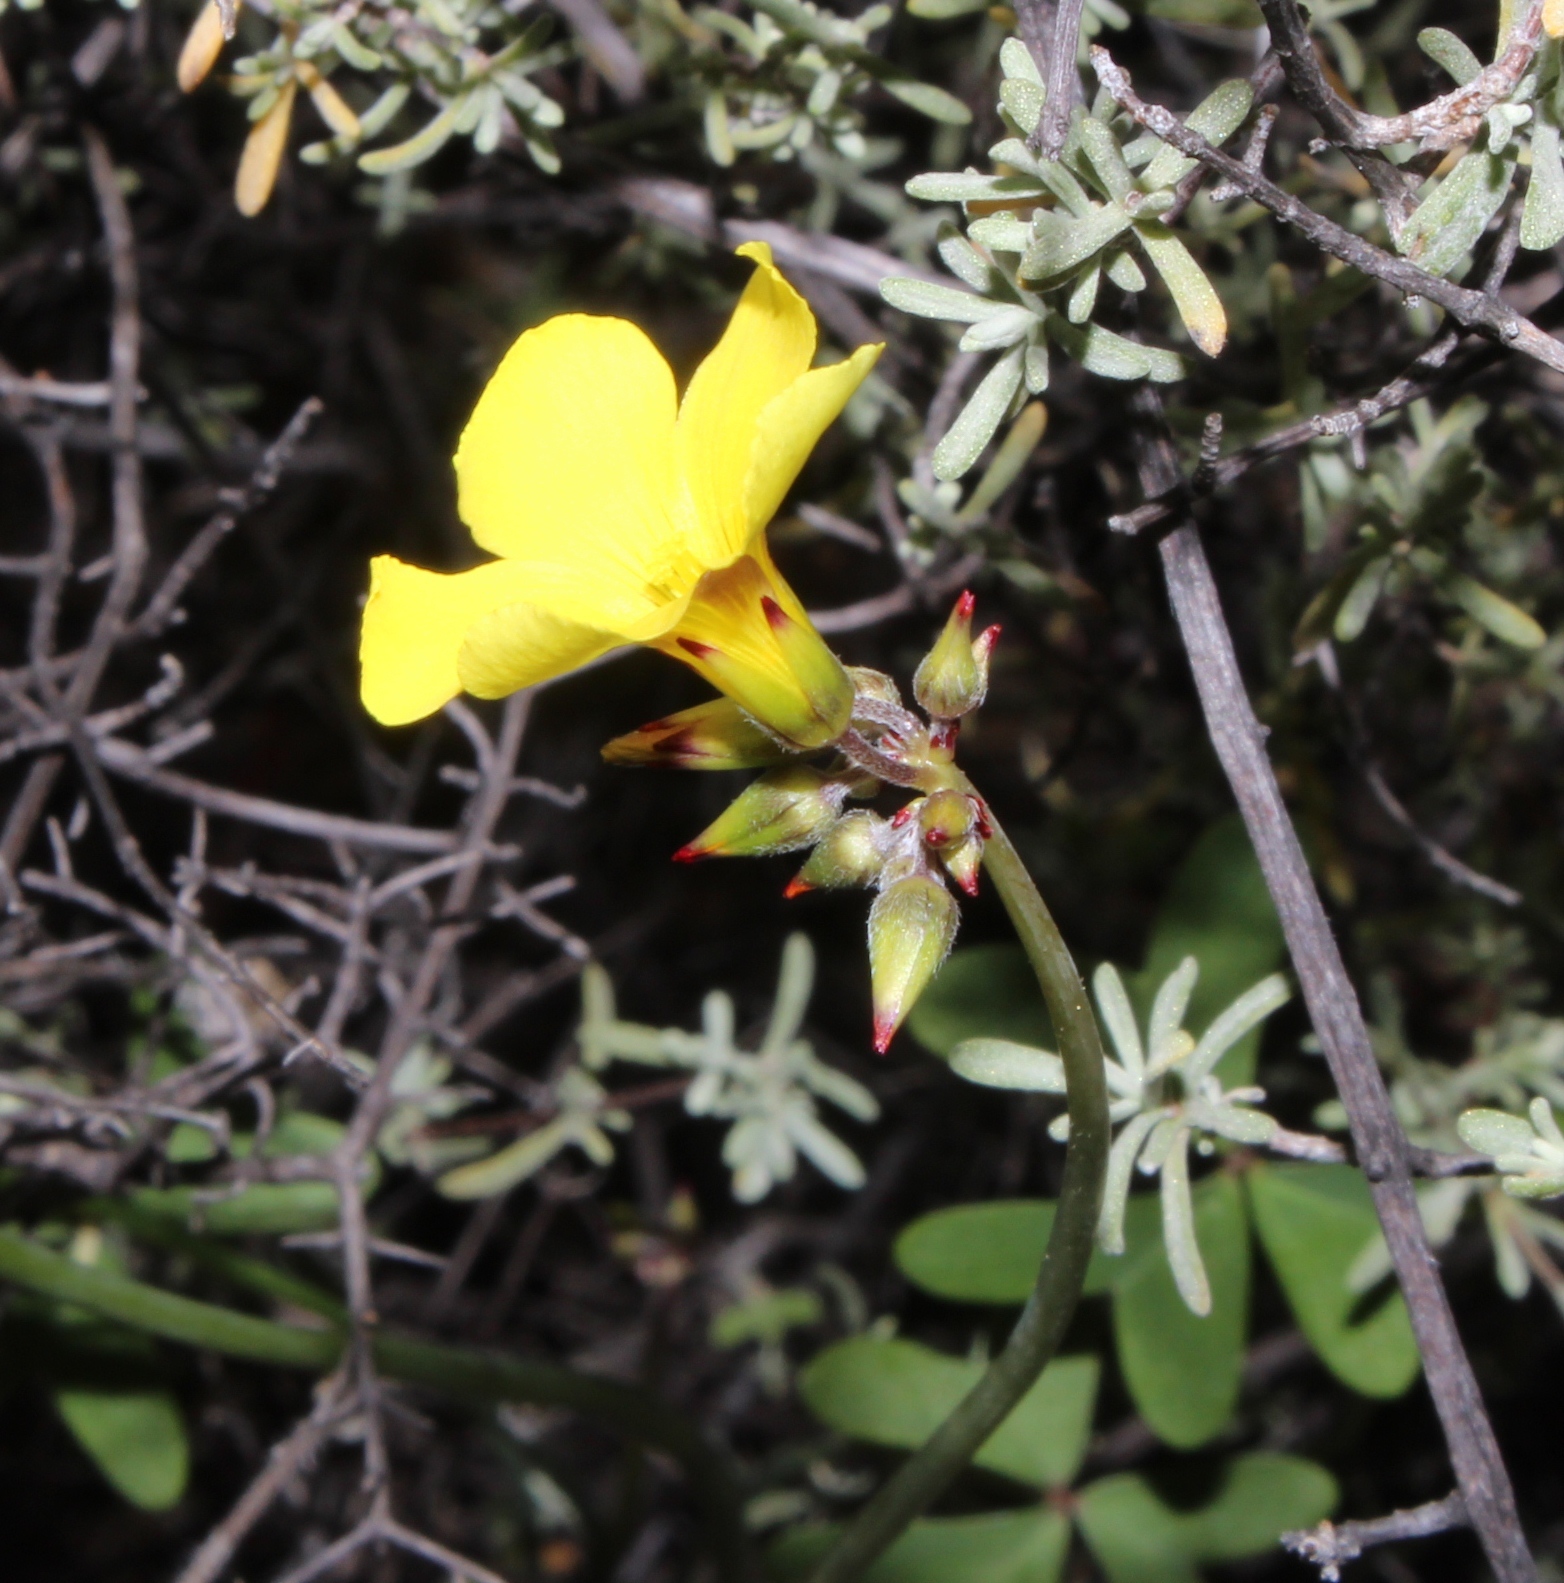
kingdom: Plantae
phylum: Tracheophyta
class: Magnoliopsida
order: Oxalidales
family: Oxalidaceae
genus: Oxalis
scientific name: Oxalis pes-caprae
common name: Bermuda-buttercup
